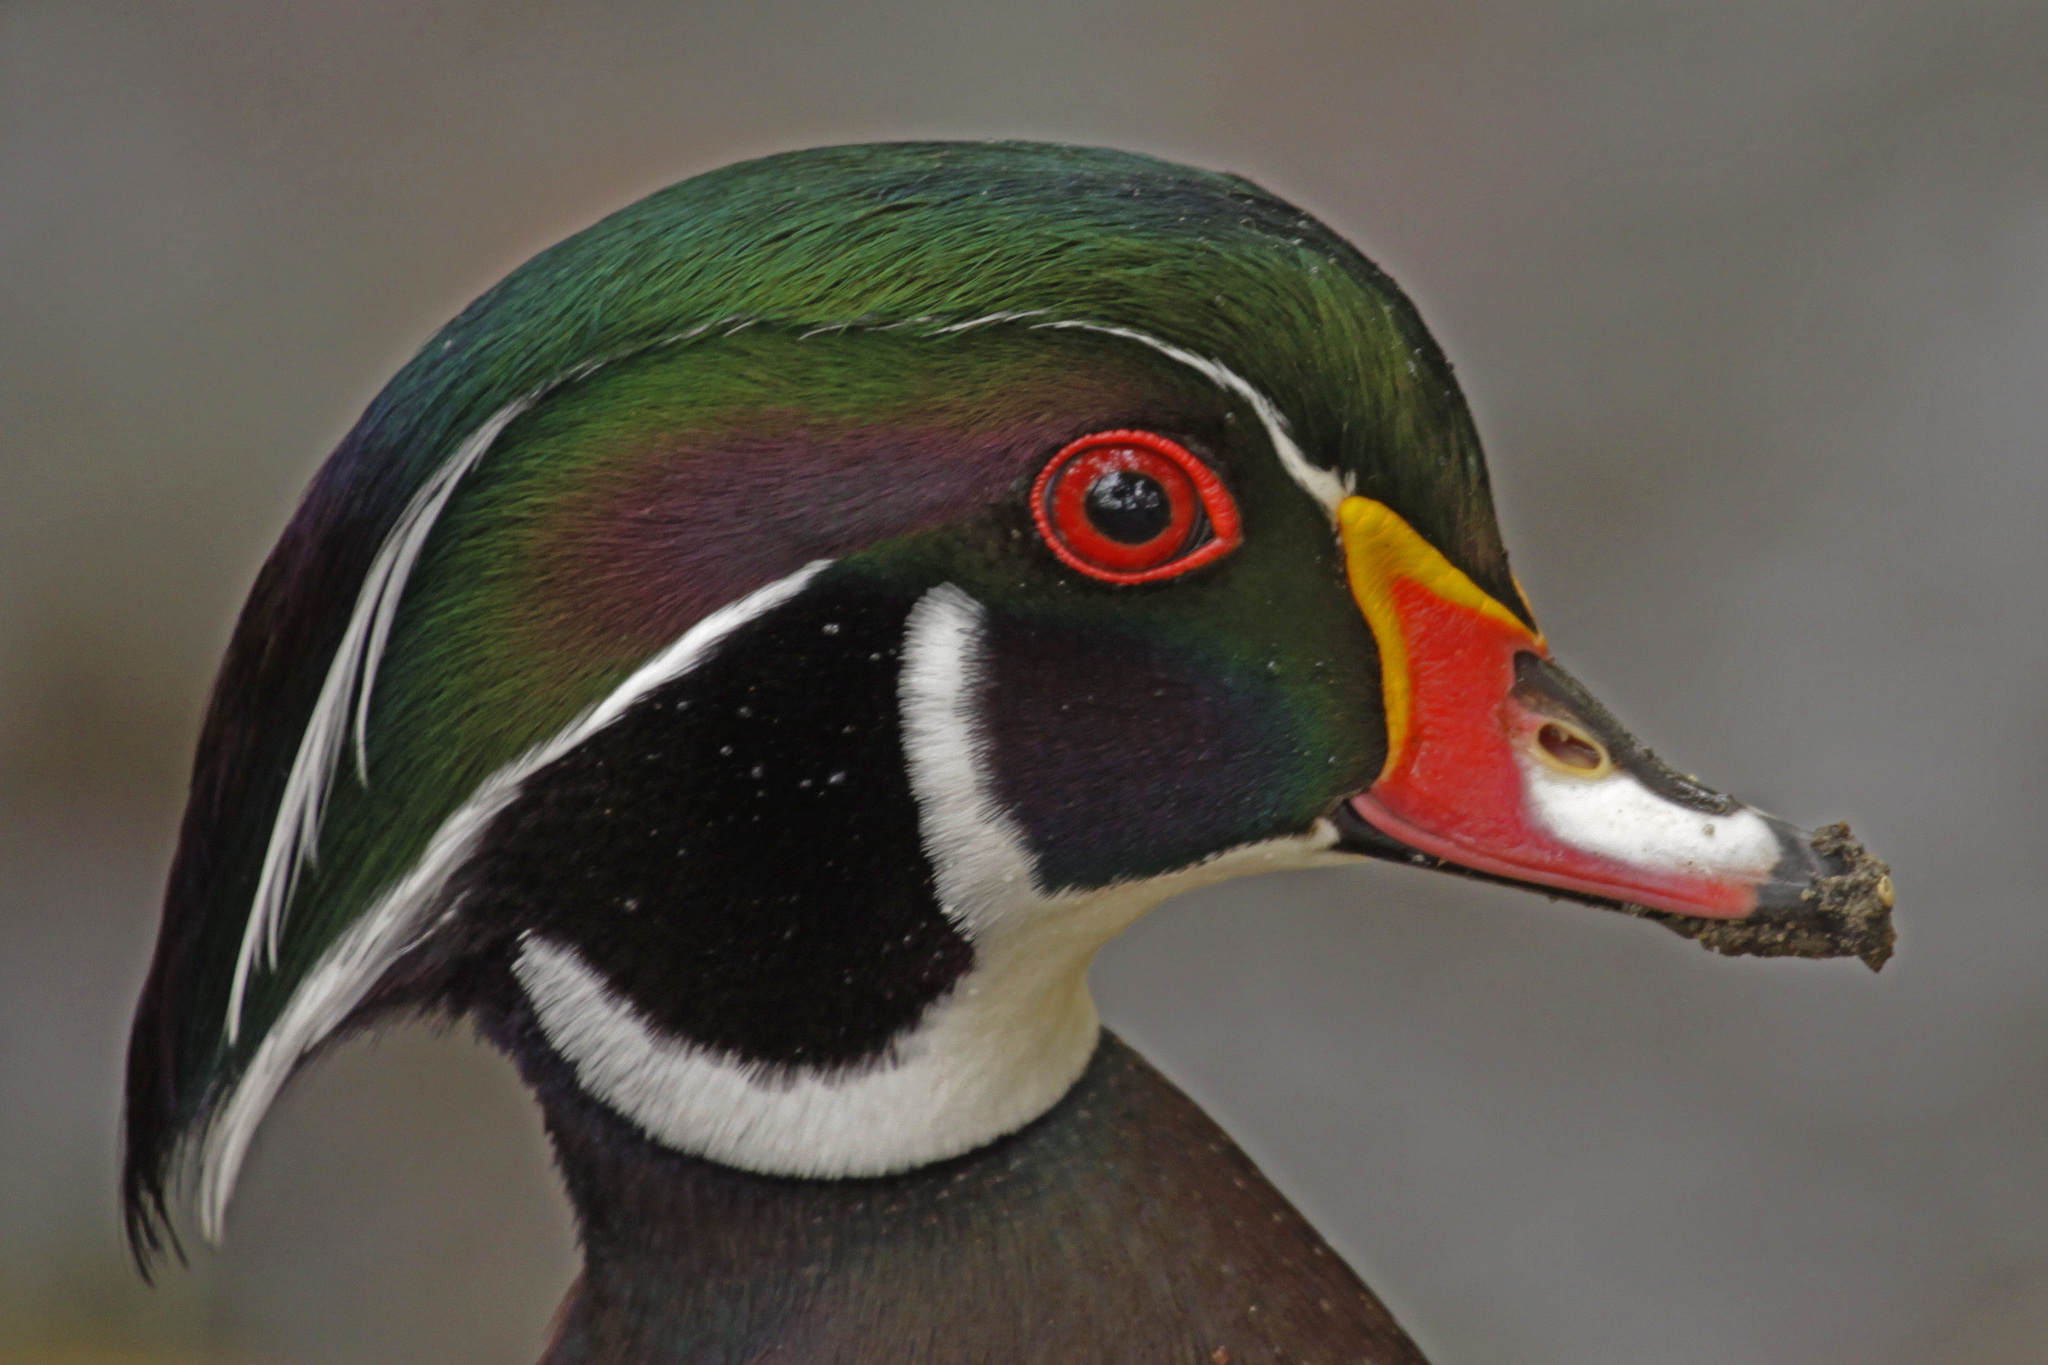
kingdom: Animalia
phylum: Chordata
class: Aves
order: Anseriformes
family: Anatidae
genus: Aix
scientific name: Aix sponsa
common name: Wood duck
